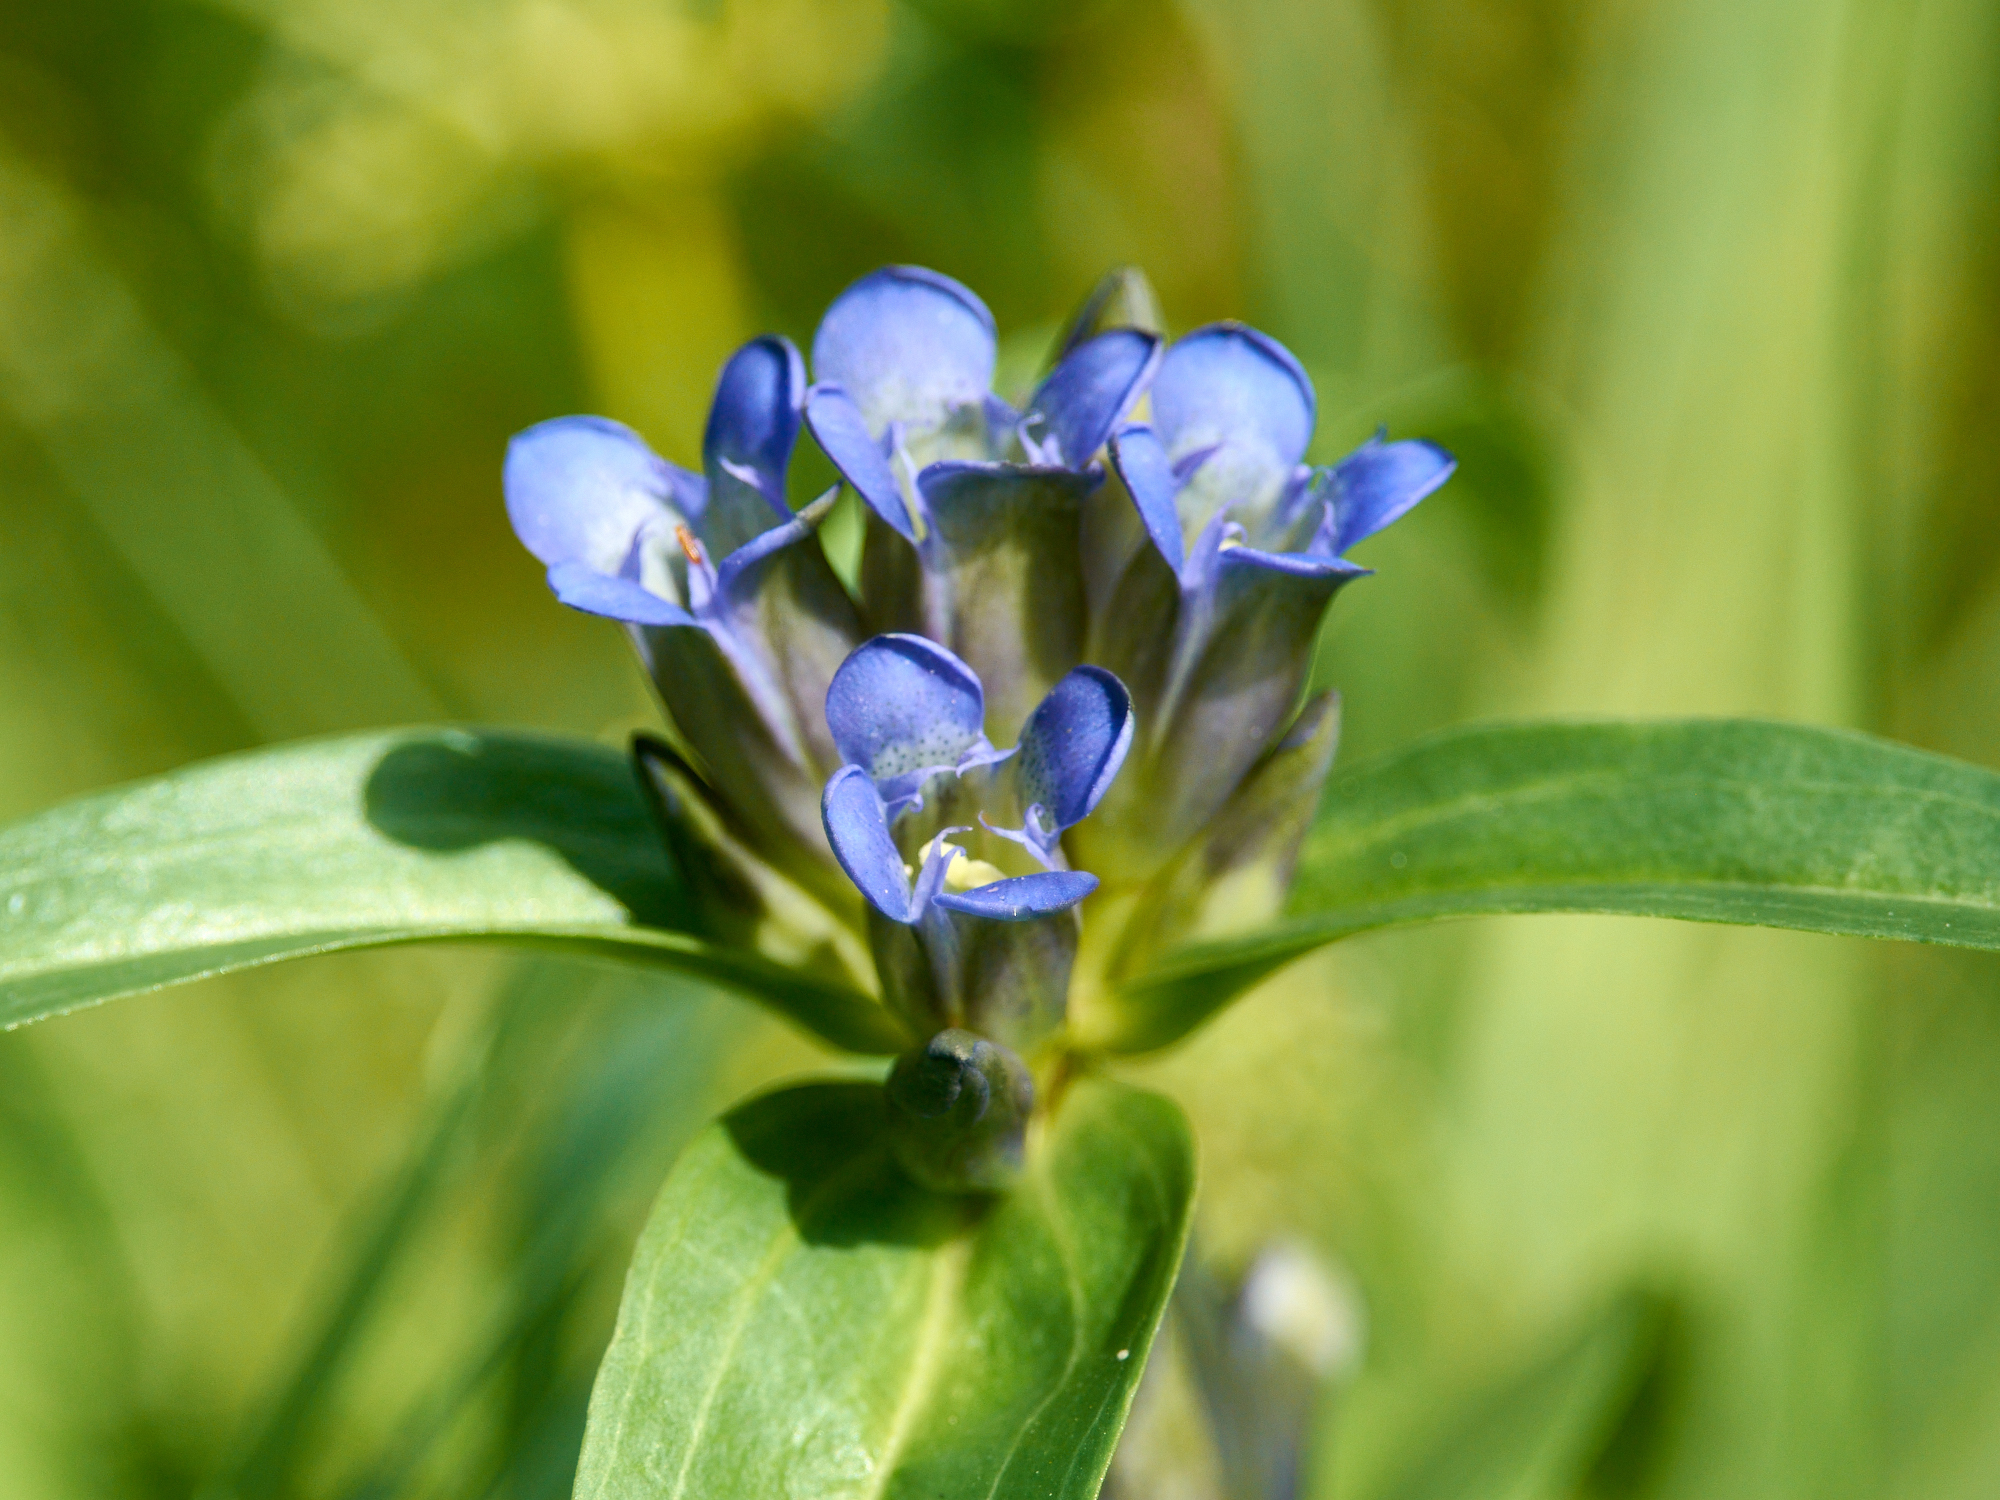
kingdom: Plantae
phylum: Tracheophyta
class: Magnoliopsida
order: Gentianales
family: Gentianaceae
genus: Gentiana
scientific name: Gentiana cruciata
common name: Cross gentian
